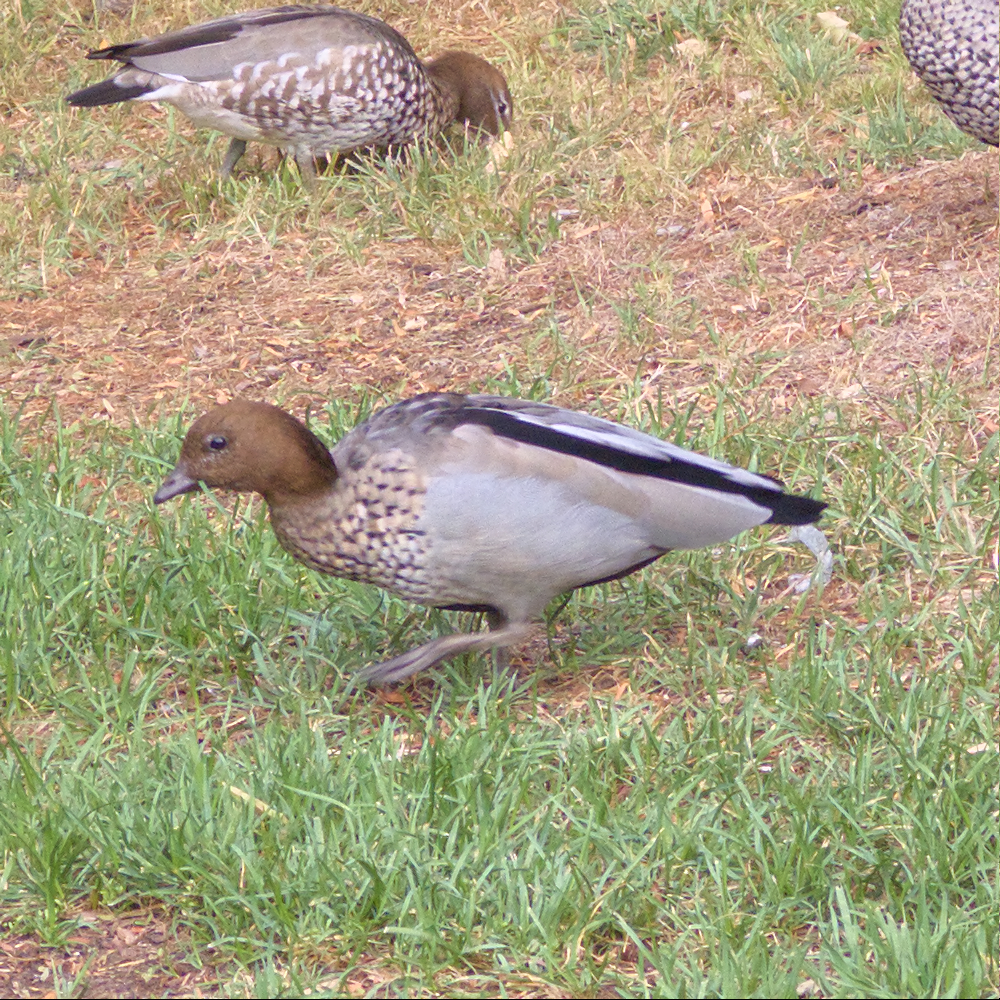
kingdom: Animalia
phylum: Chordata
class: Aves
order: Anseriformes
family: Anatidae
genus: Chenonetta
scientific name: Chenonetta jubata
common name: Maned duck
